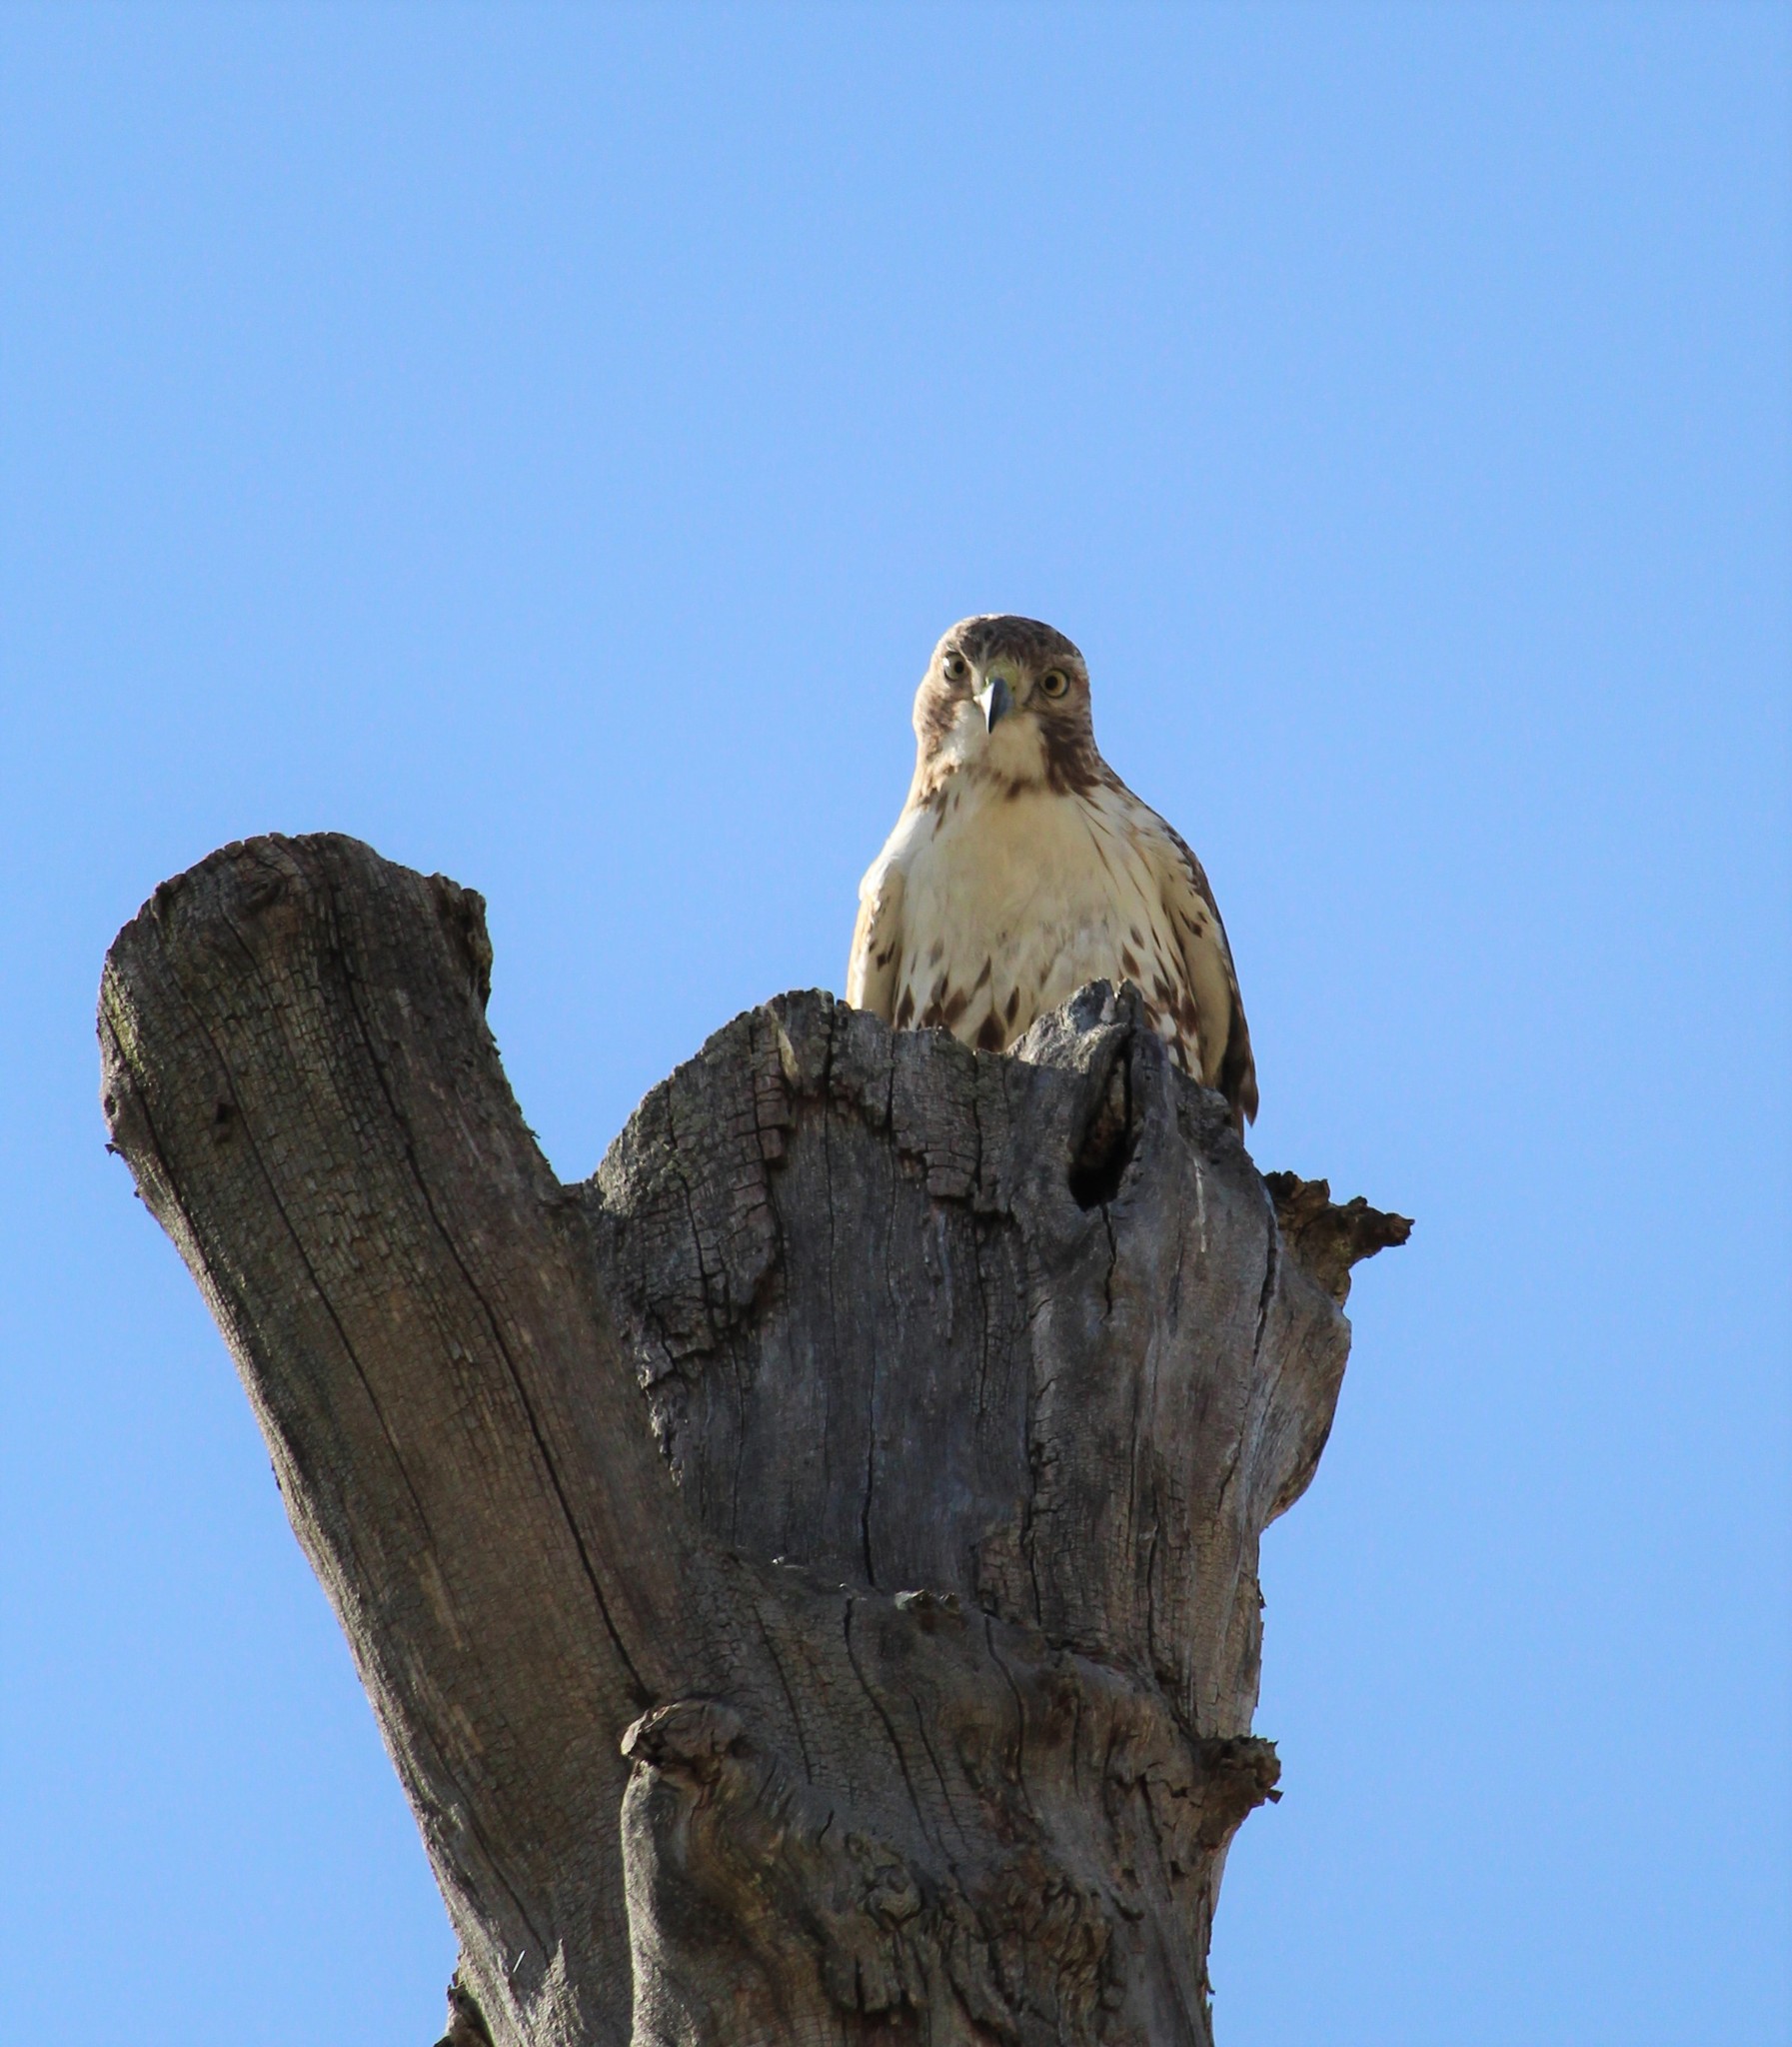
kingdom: Animalia
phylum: Chordata
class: Aves
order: Accipitriformes
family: Accipitridae
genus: Buteo
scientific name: Buteo jamaicensis
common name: Red-tailed hawk
